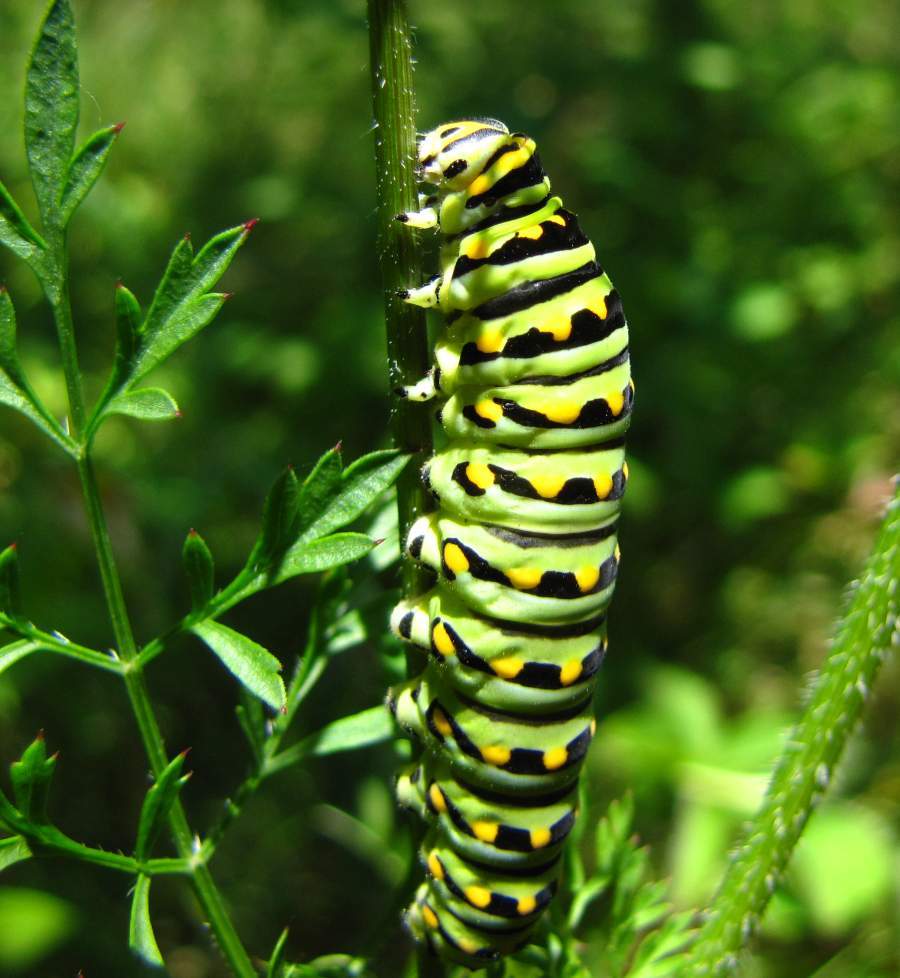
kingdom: Animalia
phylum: Arthropoda
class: Insecta
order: Lepidoptera
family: Papilionidae
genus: Papilio
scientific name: Papilio polyxenes
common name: Black swallowtail
